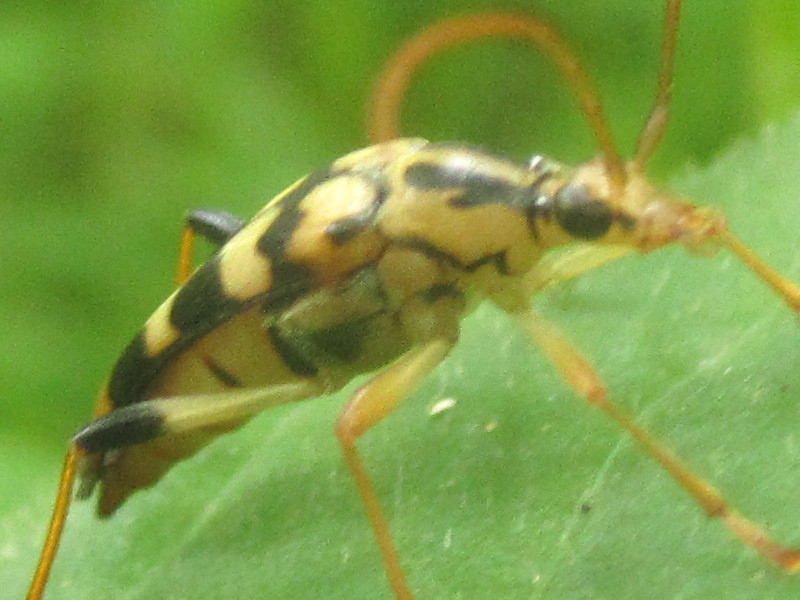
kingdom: Animalia
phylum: Arthropoda
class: Insecta
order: Coleoptera
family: Cerambycidae
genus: Strangalia
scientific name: Strangalia luteicornis
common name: Yellow-horned flower longhorn beetle
